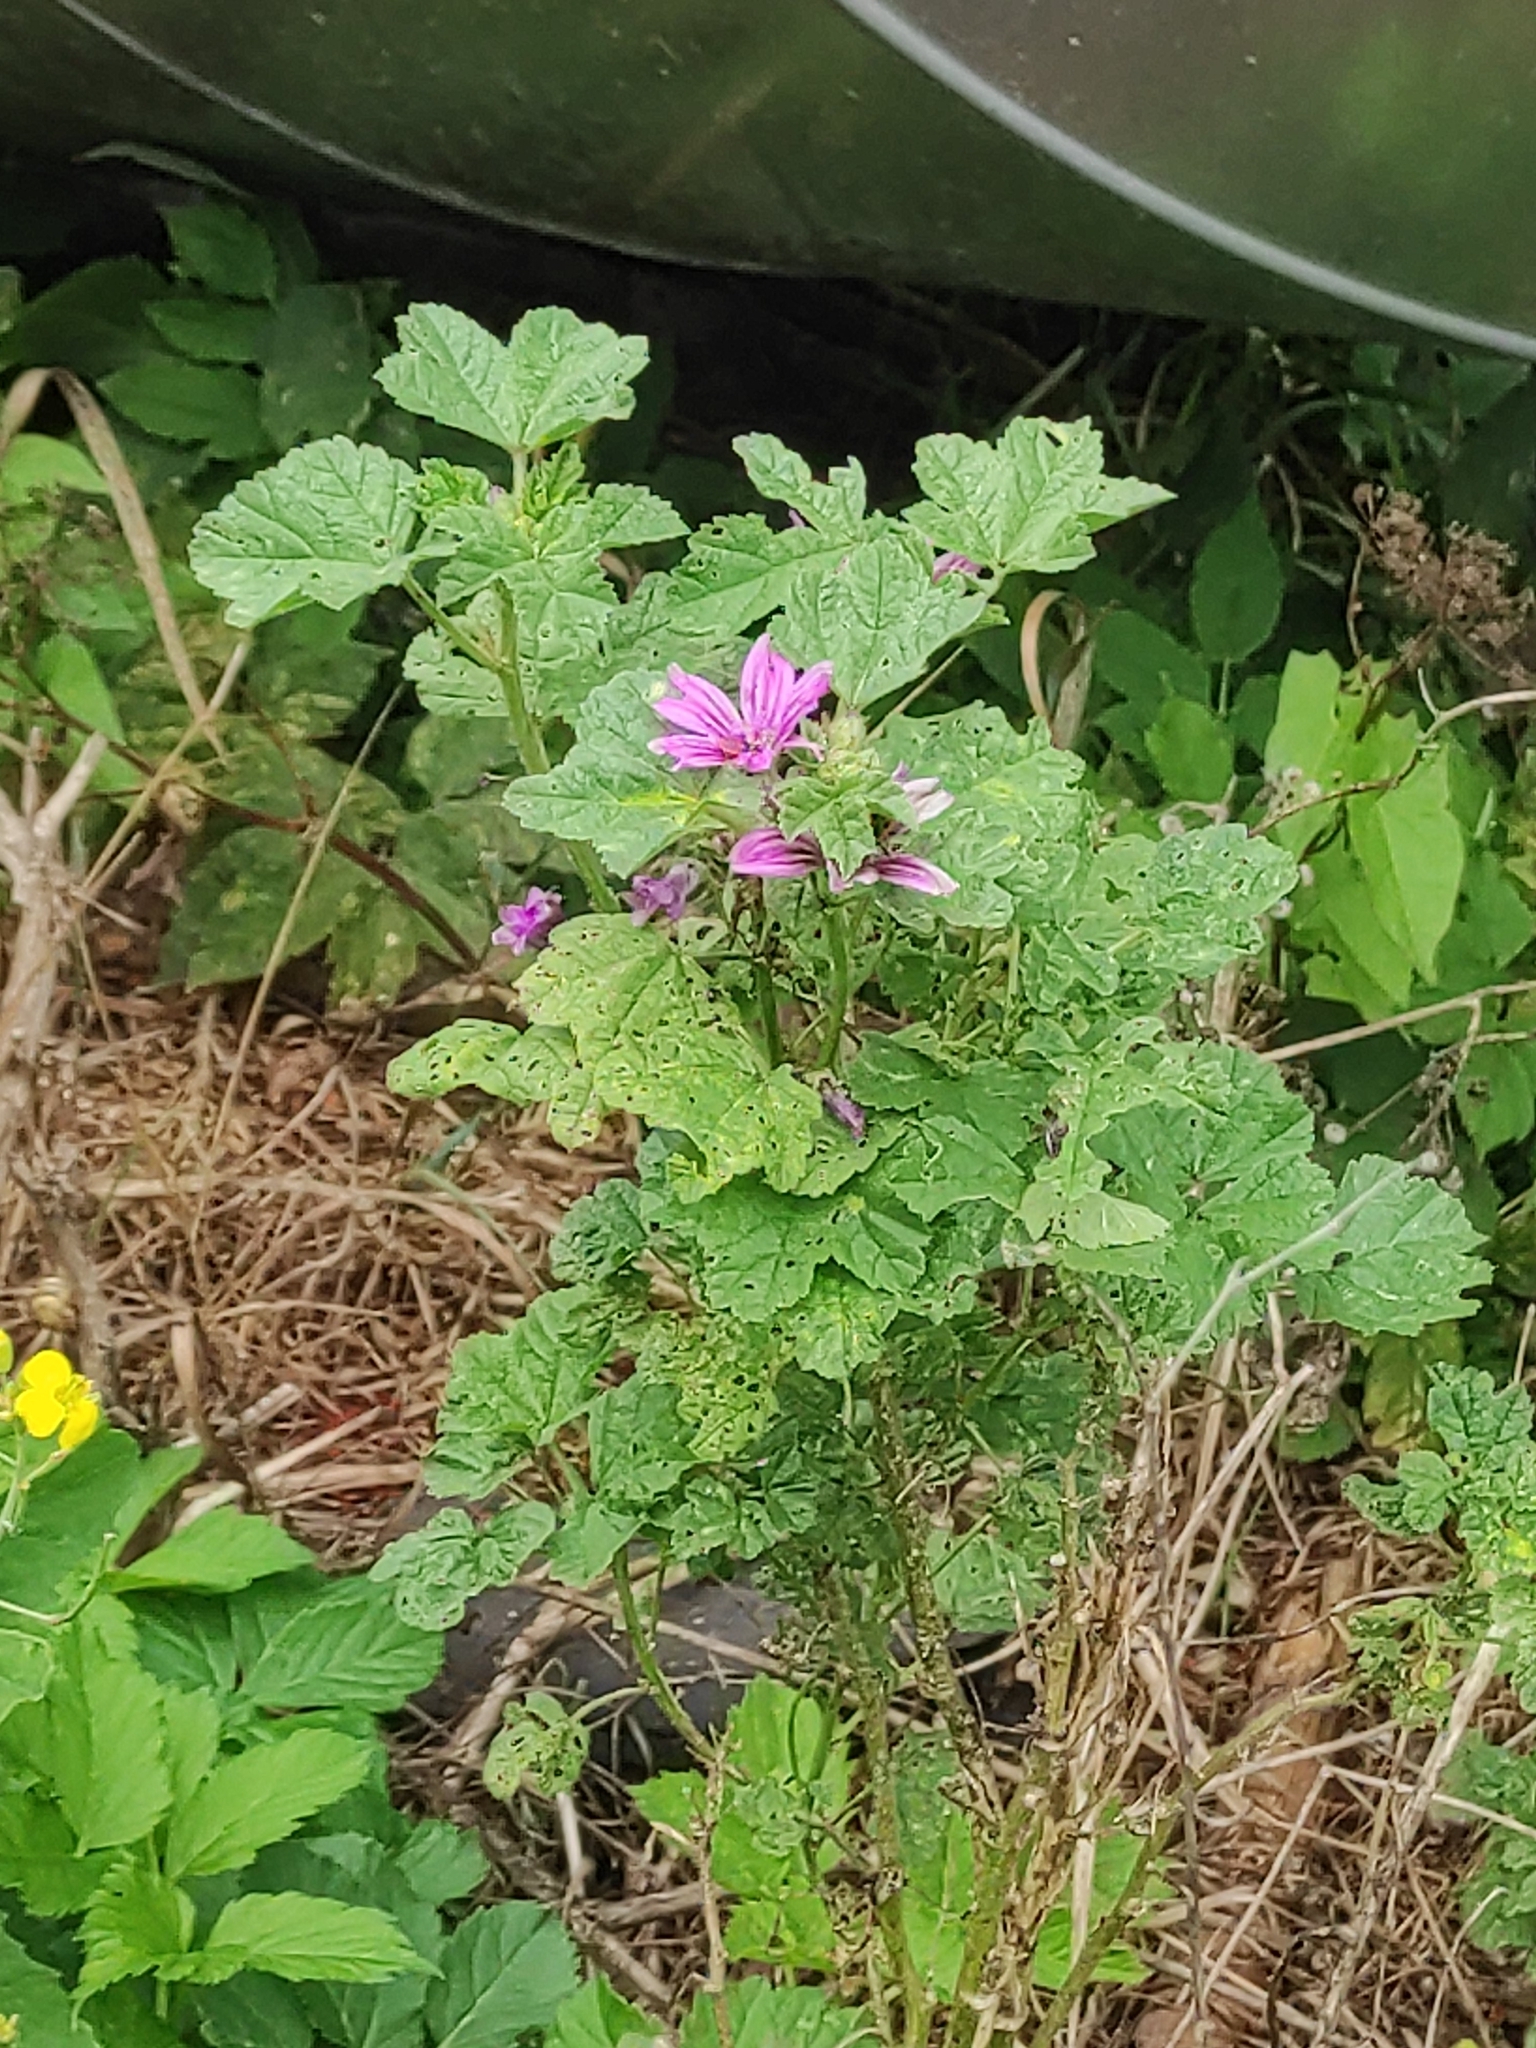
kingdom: Plantae
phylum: Tracheophyta
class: Magnoliopsida
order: Malvales
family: Malvaceae
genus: Malva
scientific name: Malva sylvestris
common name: Common mallow
